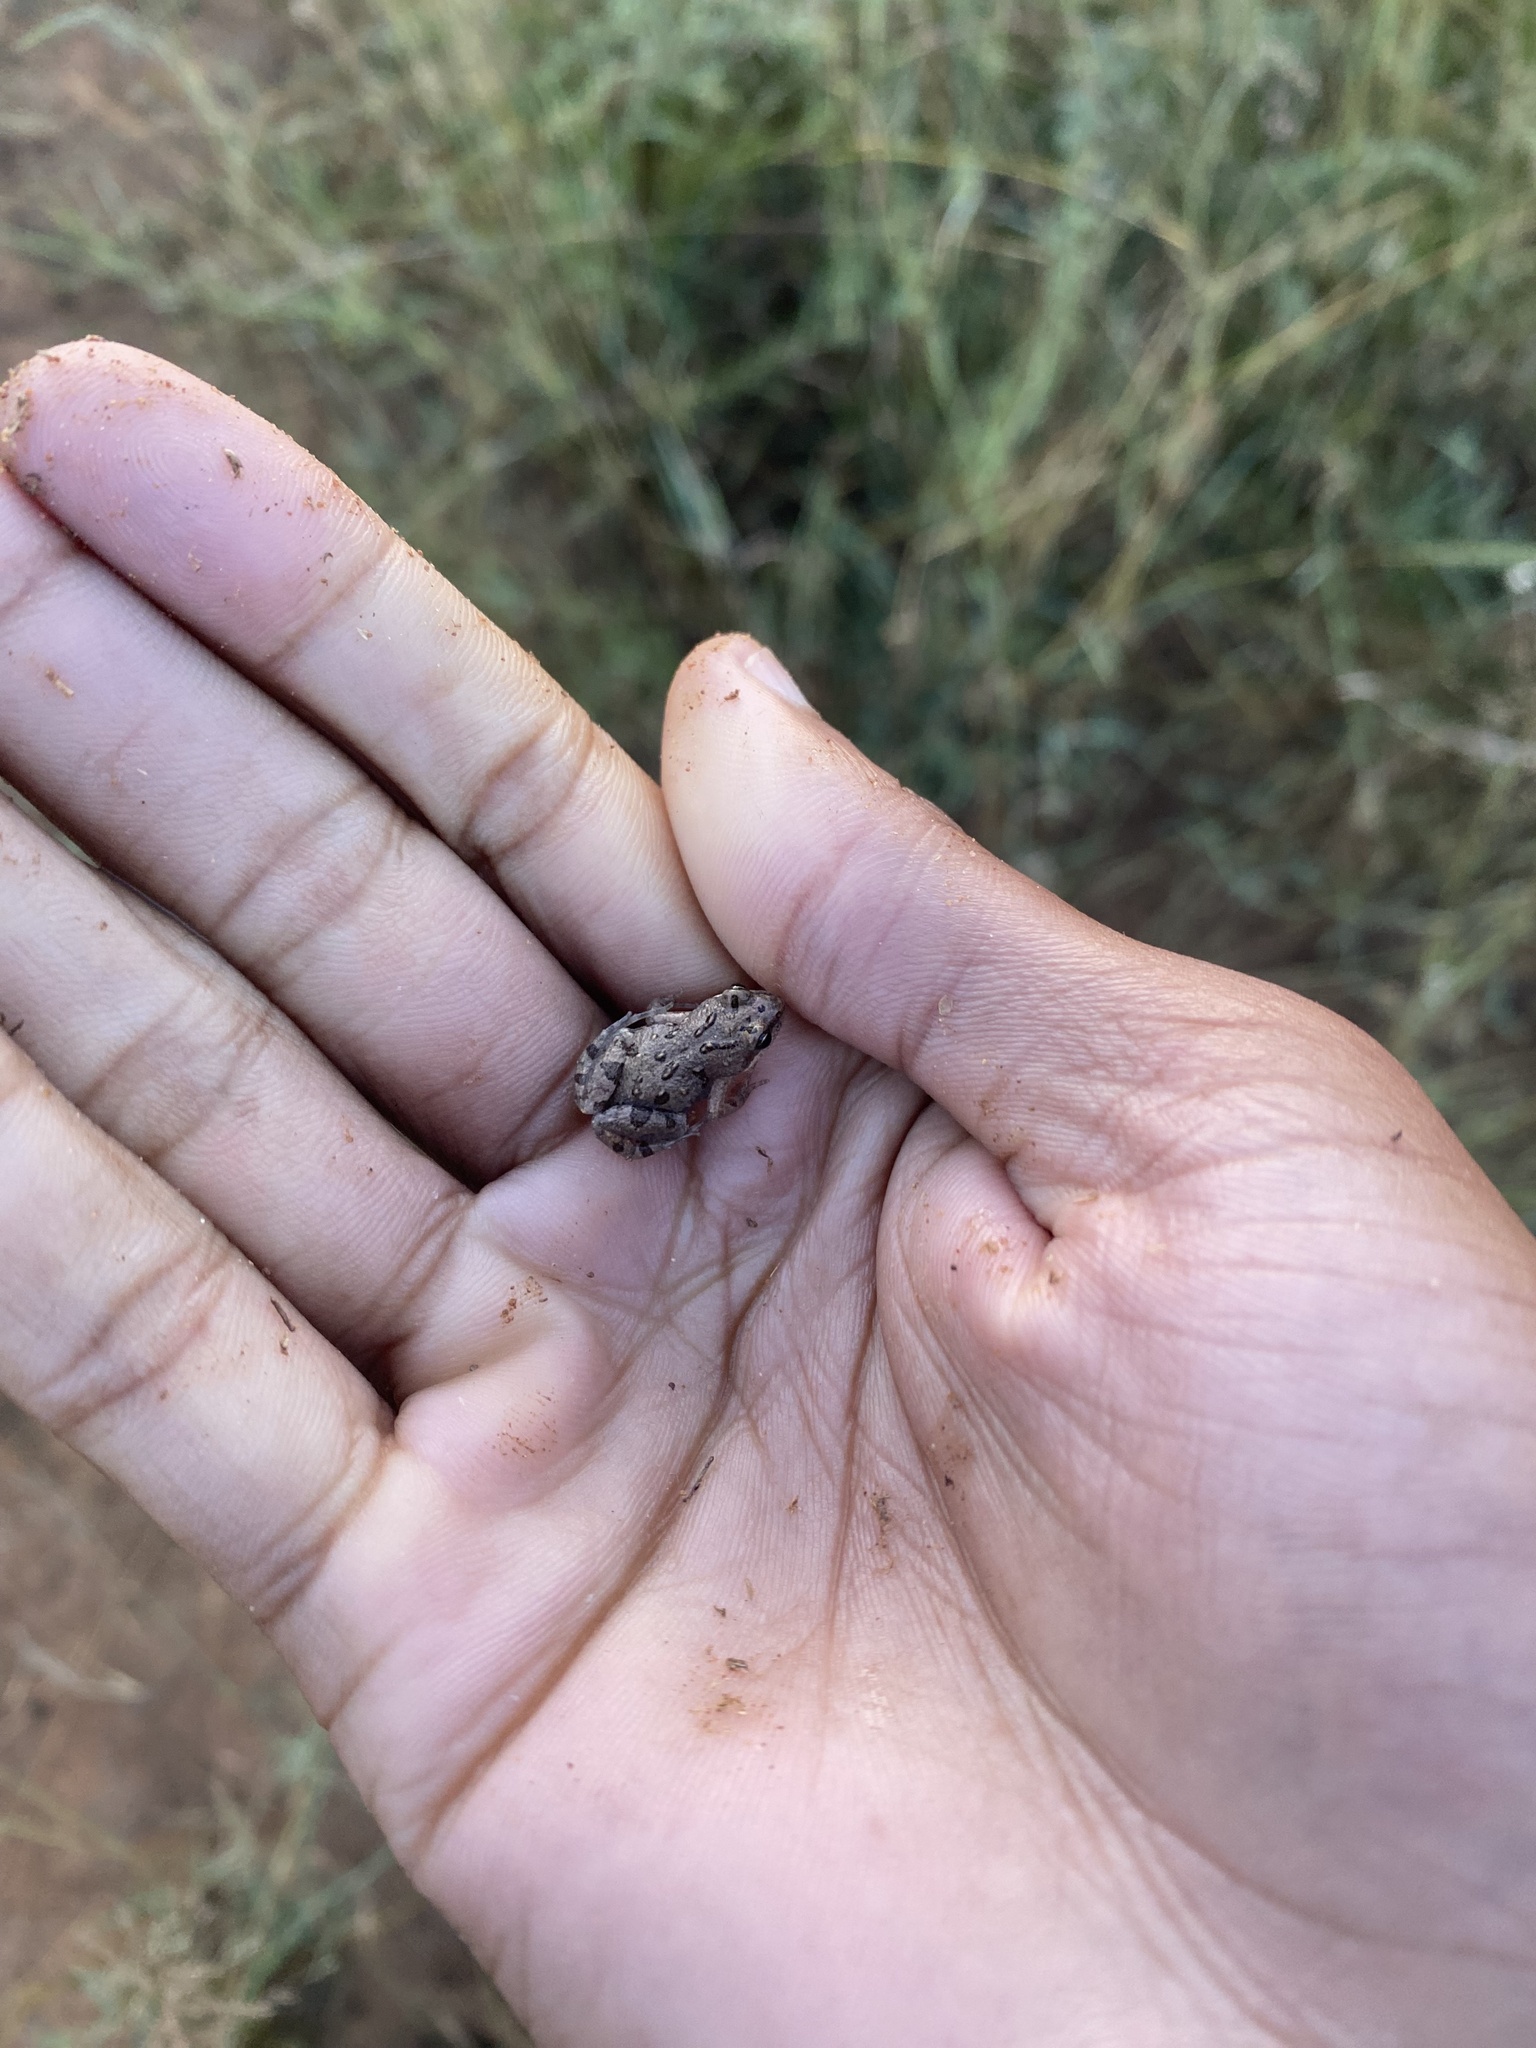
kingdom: Animalia
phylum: Chordata
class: Amphibia
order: Anura
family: Pyxicephalidae
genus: Cacosternum
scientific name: Cacosternum boettgeri
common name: Boettger's frog
